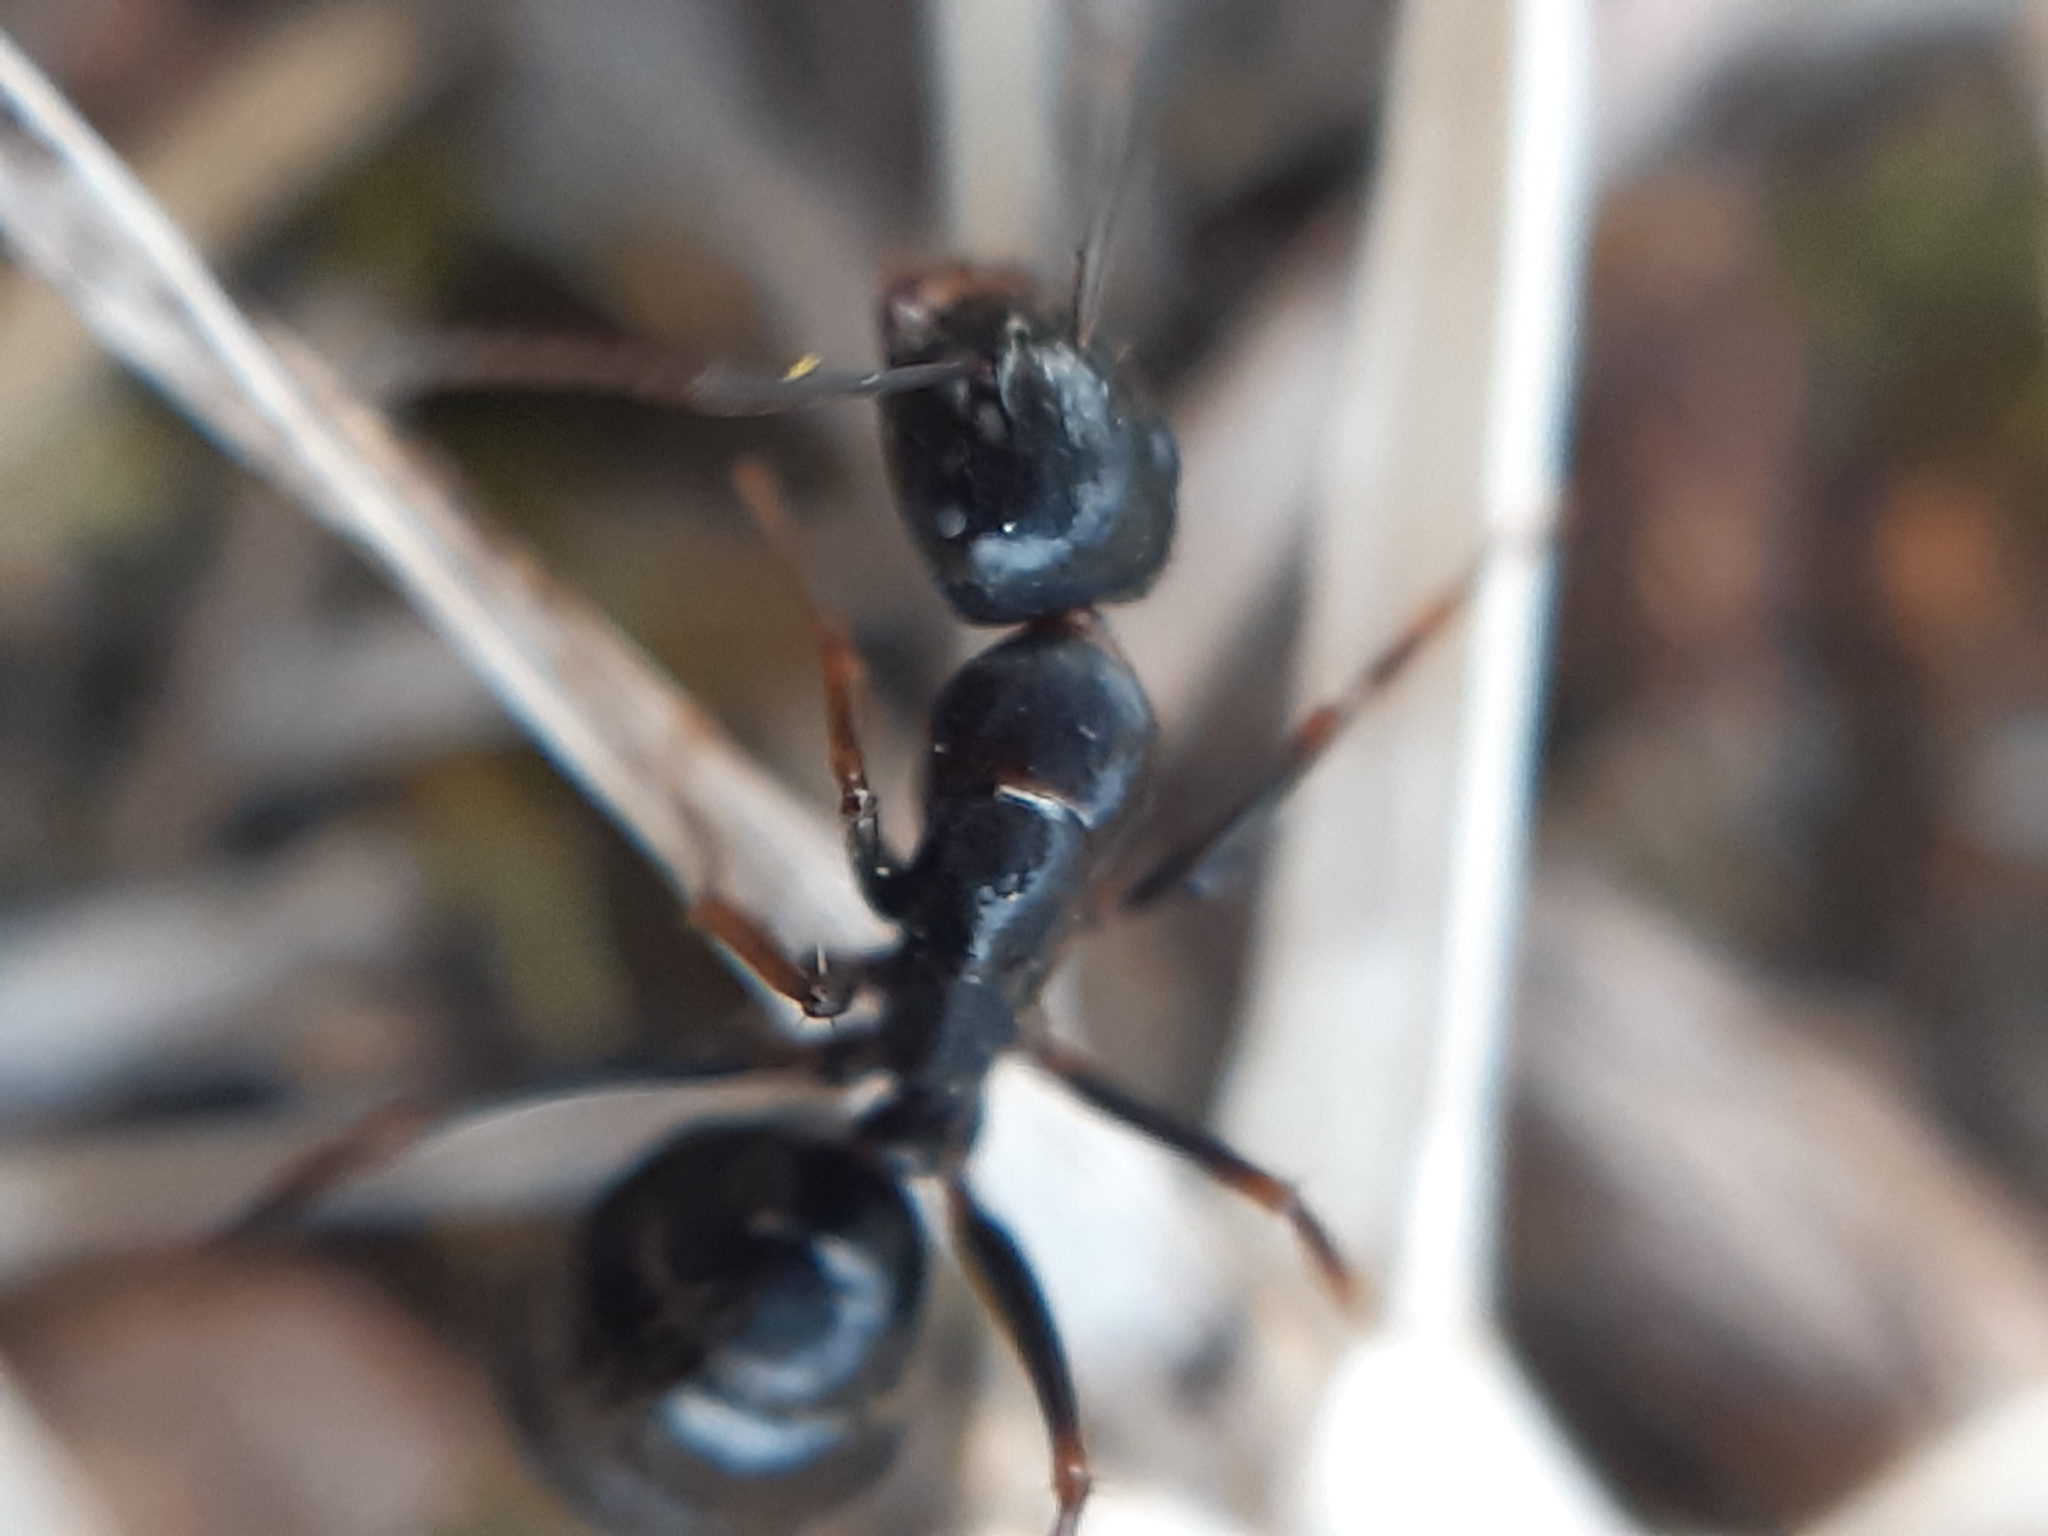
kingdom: Animalia
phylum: Arthropoda
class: Insecta
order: Hymenoptera
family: Formicidae
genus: Camponotus
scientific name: Camponotus aethiops
